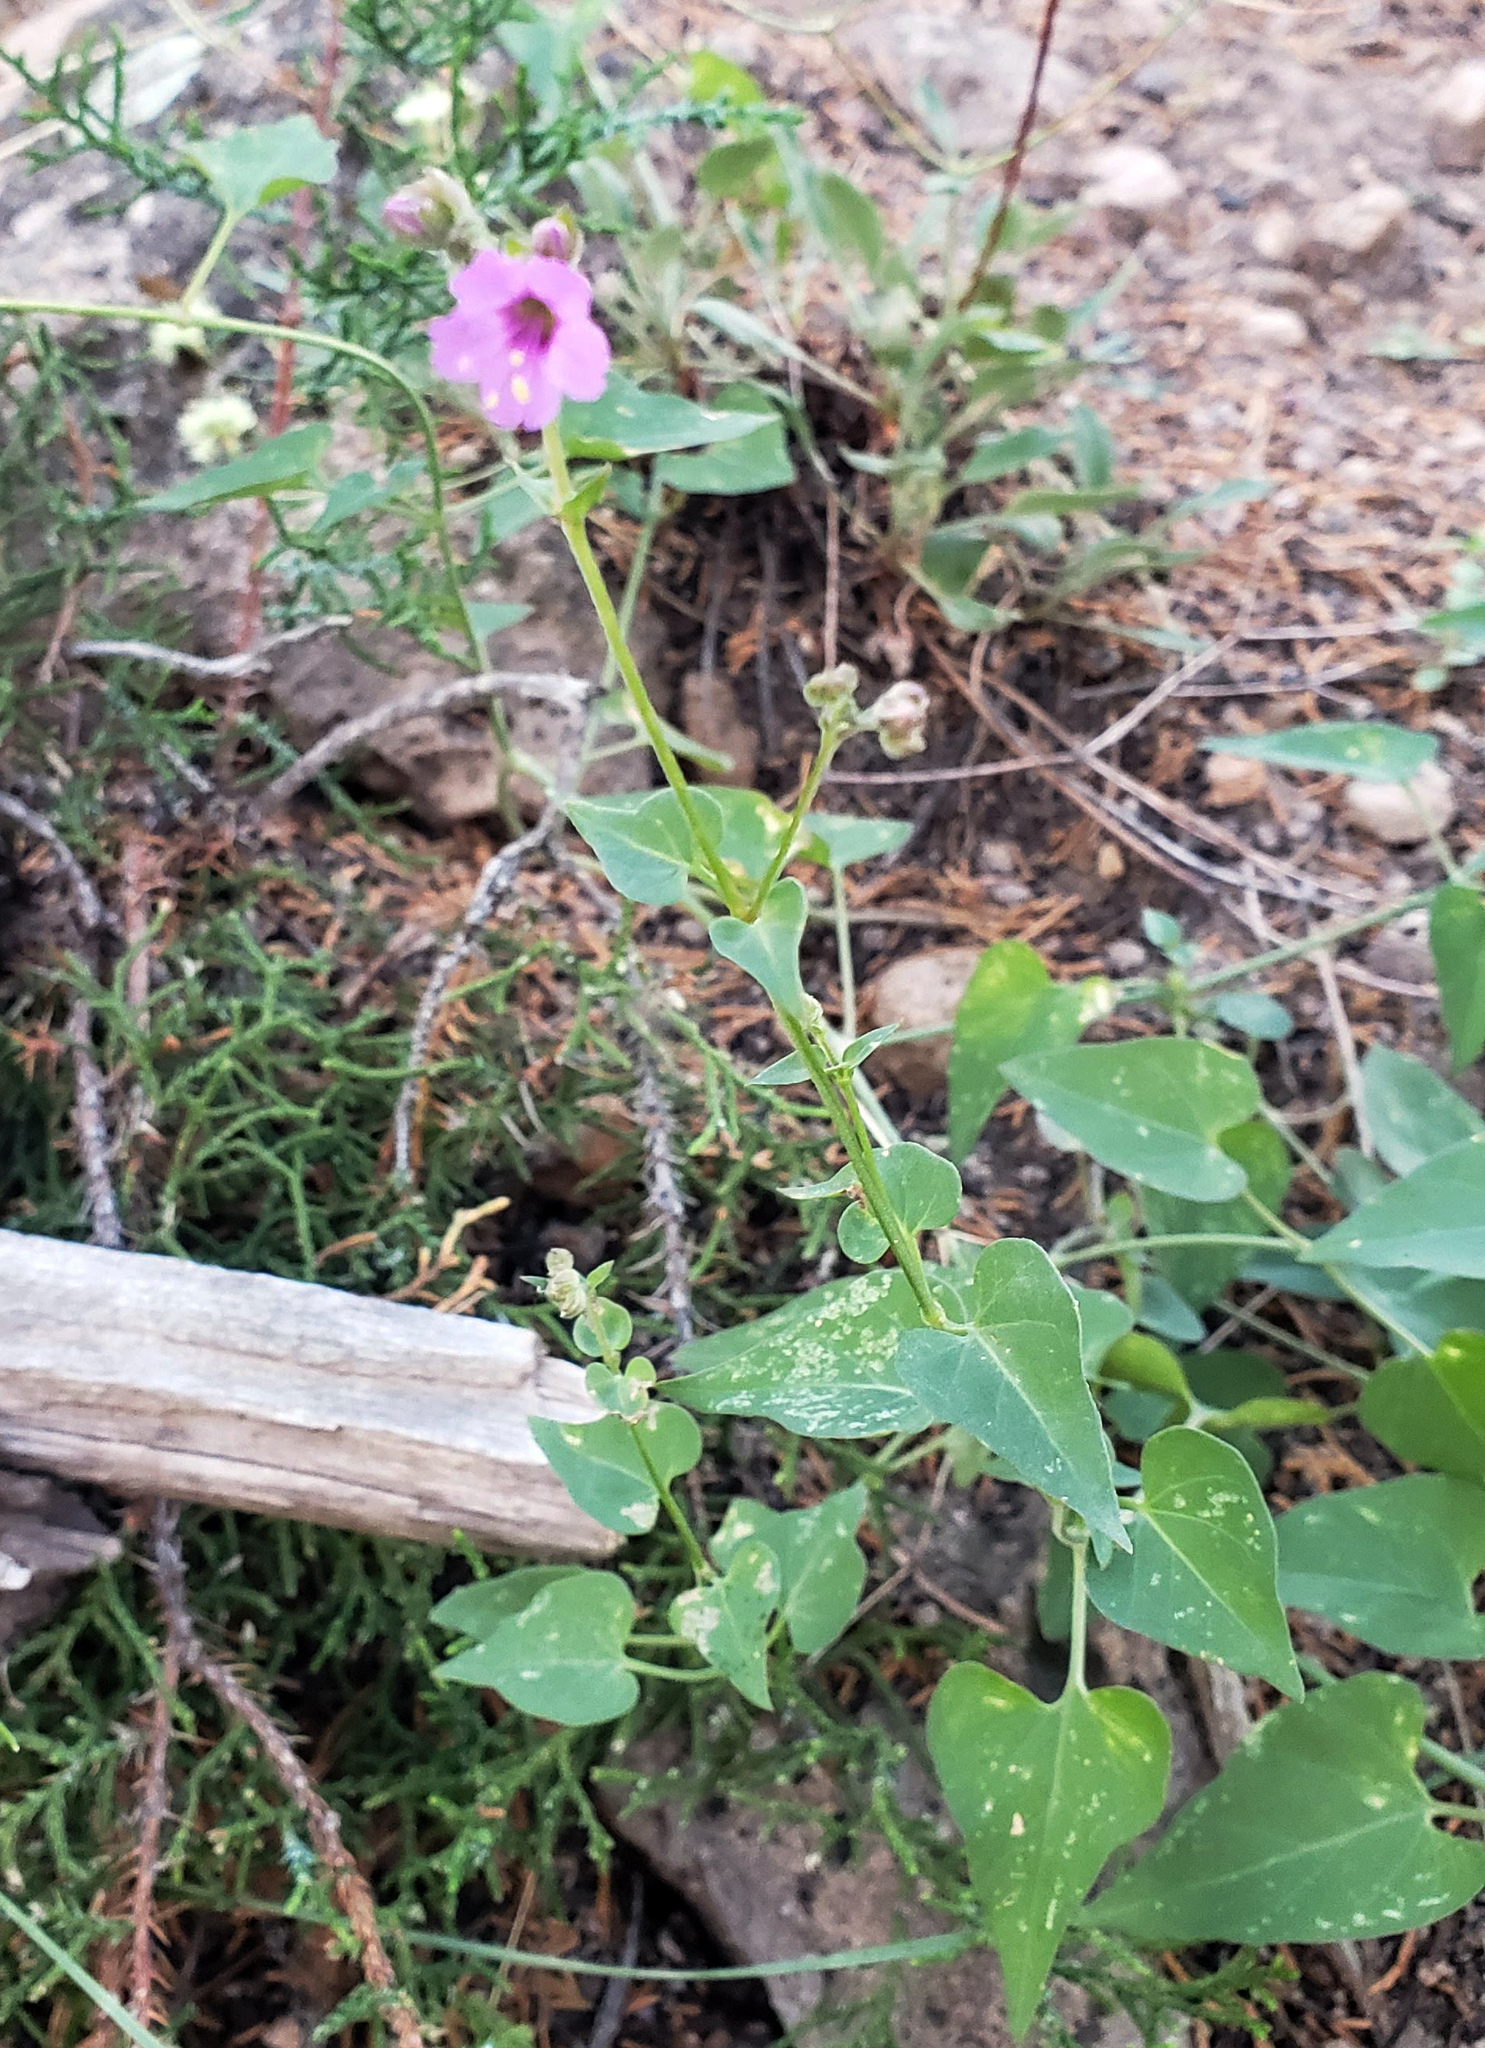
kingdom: Plantae
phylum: Tracheophyta
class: Magnoliopsida
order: Caryophyllales
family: Nyctaginaceae
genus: Mirabilis
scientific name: Mirabilis oxybaphoides
